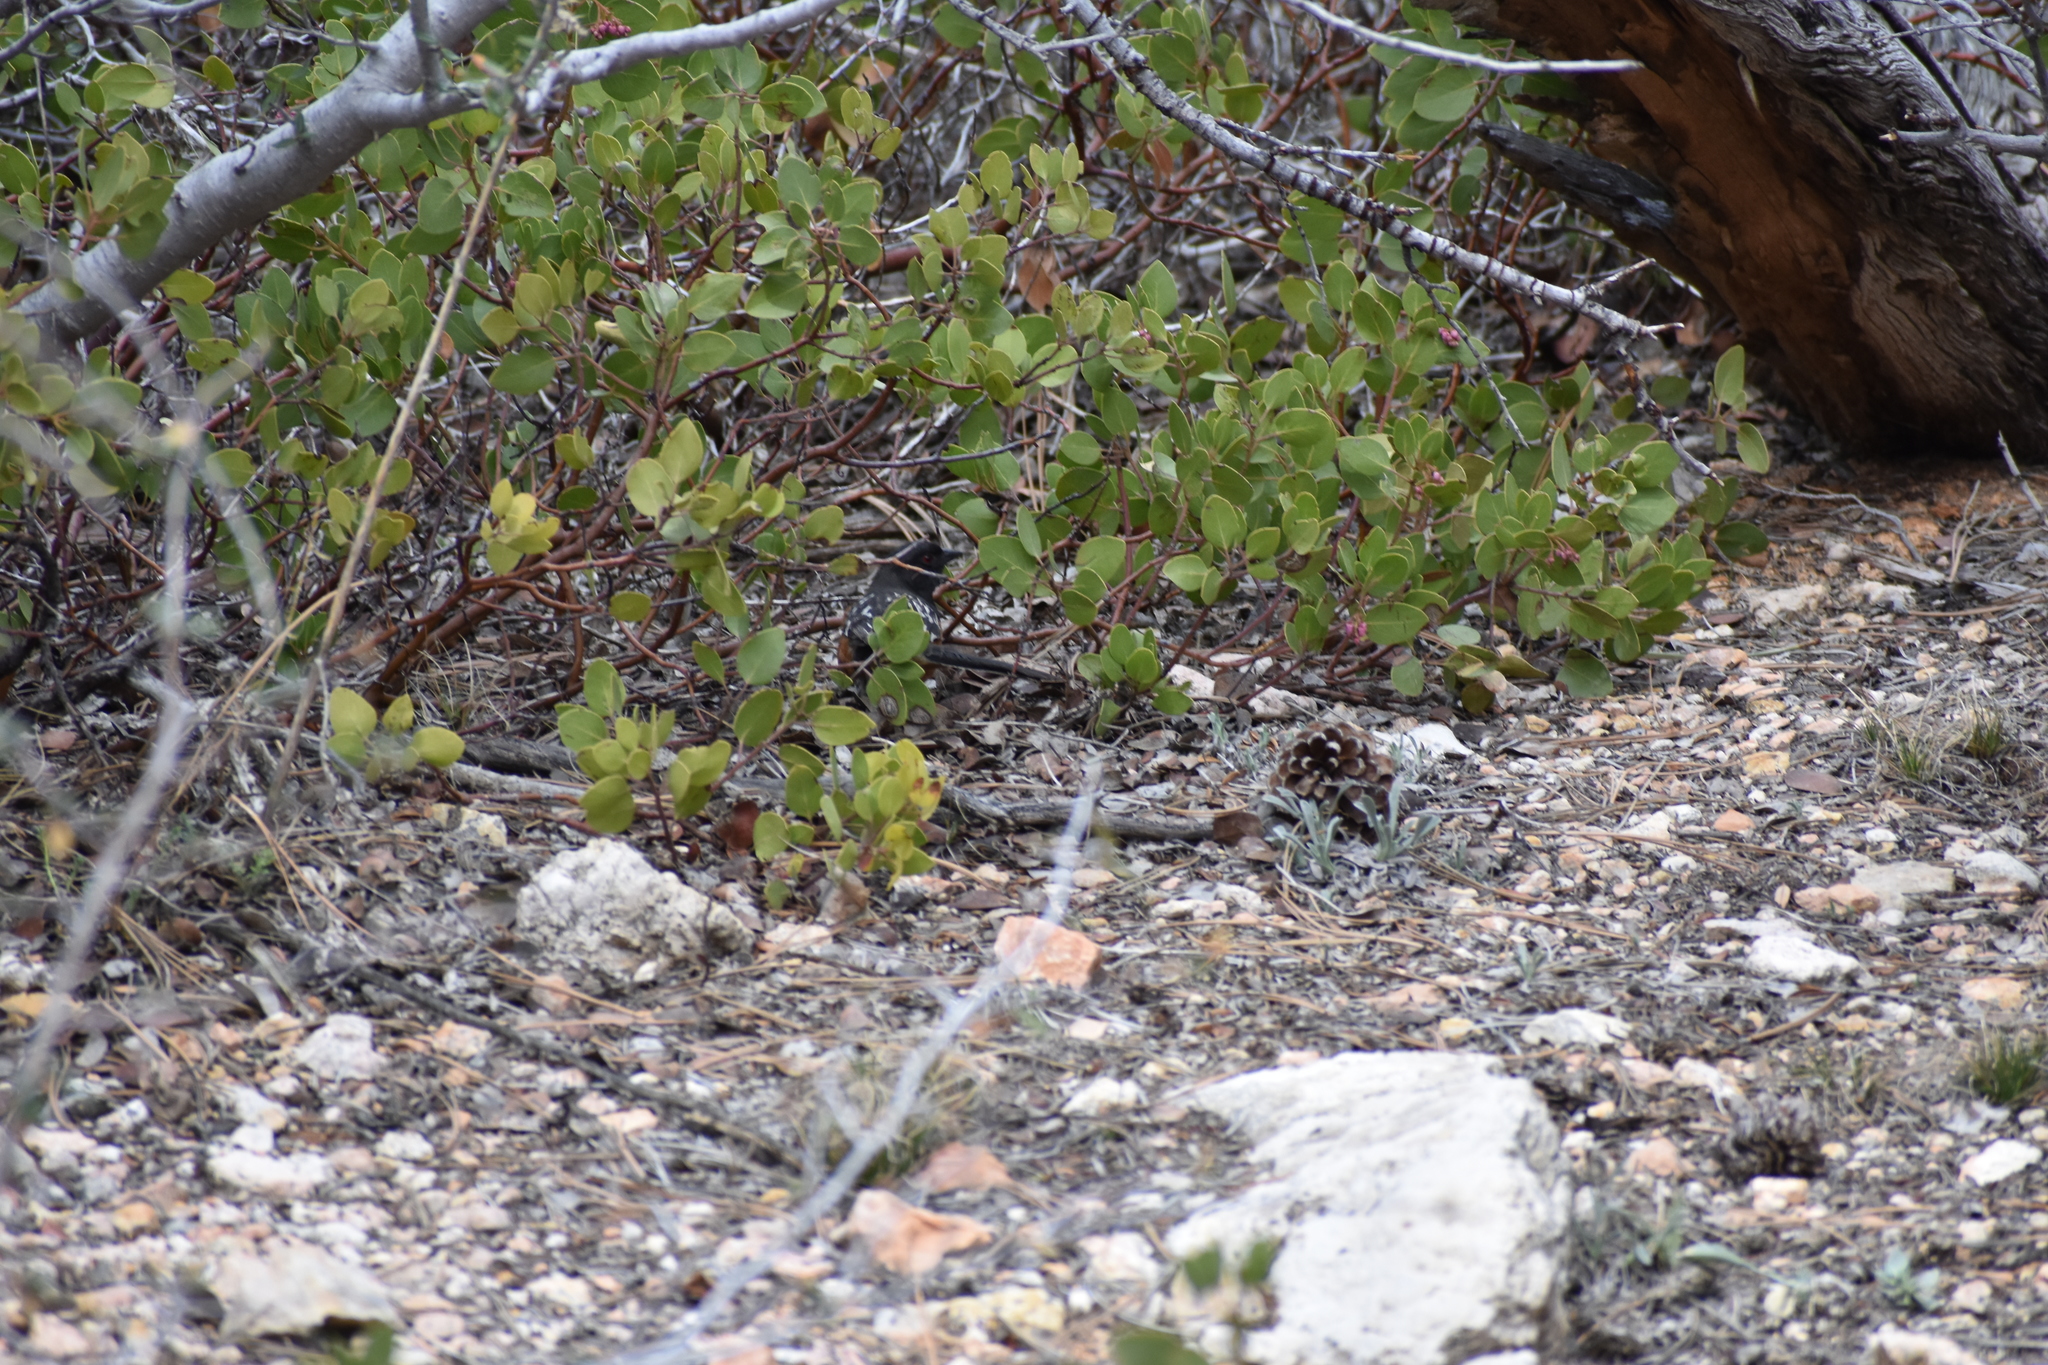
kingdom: Animalia
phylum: Chordata
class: Aves
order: Passeriformes
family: Passerellidae
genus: Pipilo
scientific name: Pipilo maculatus
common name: Spotted towhee
